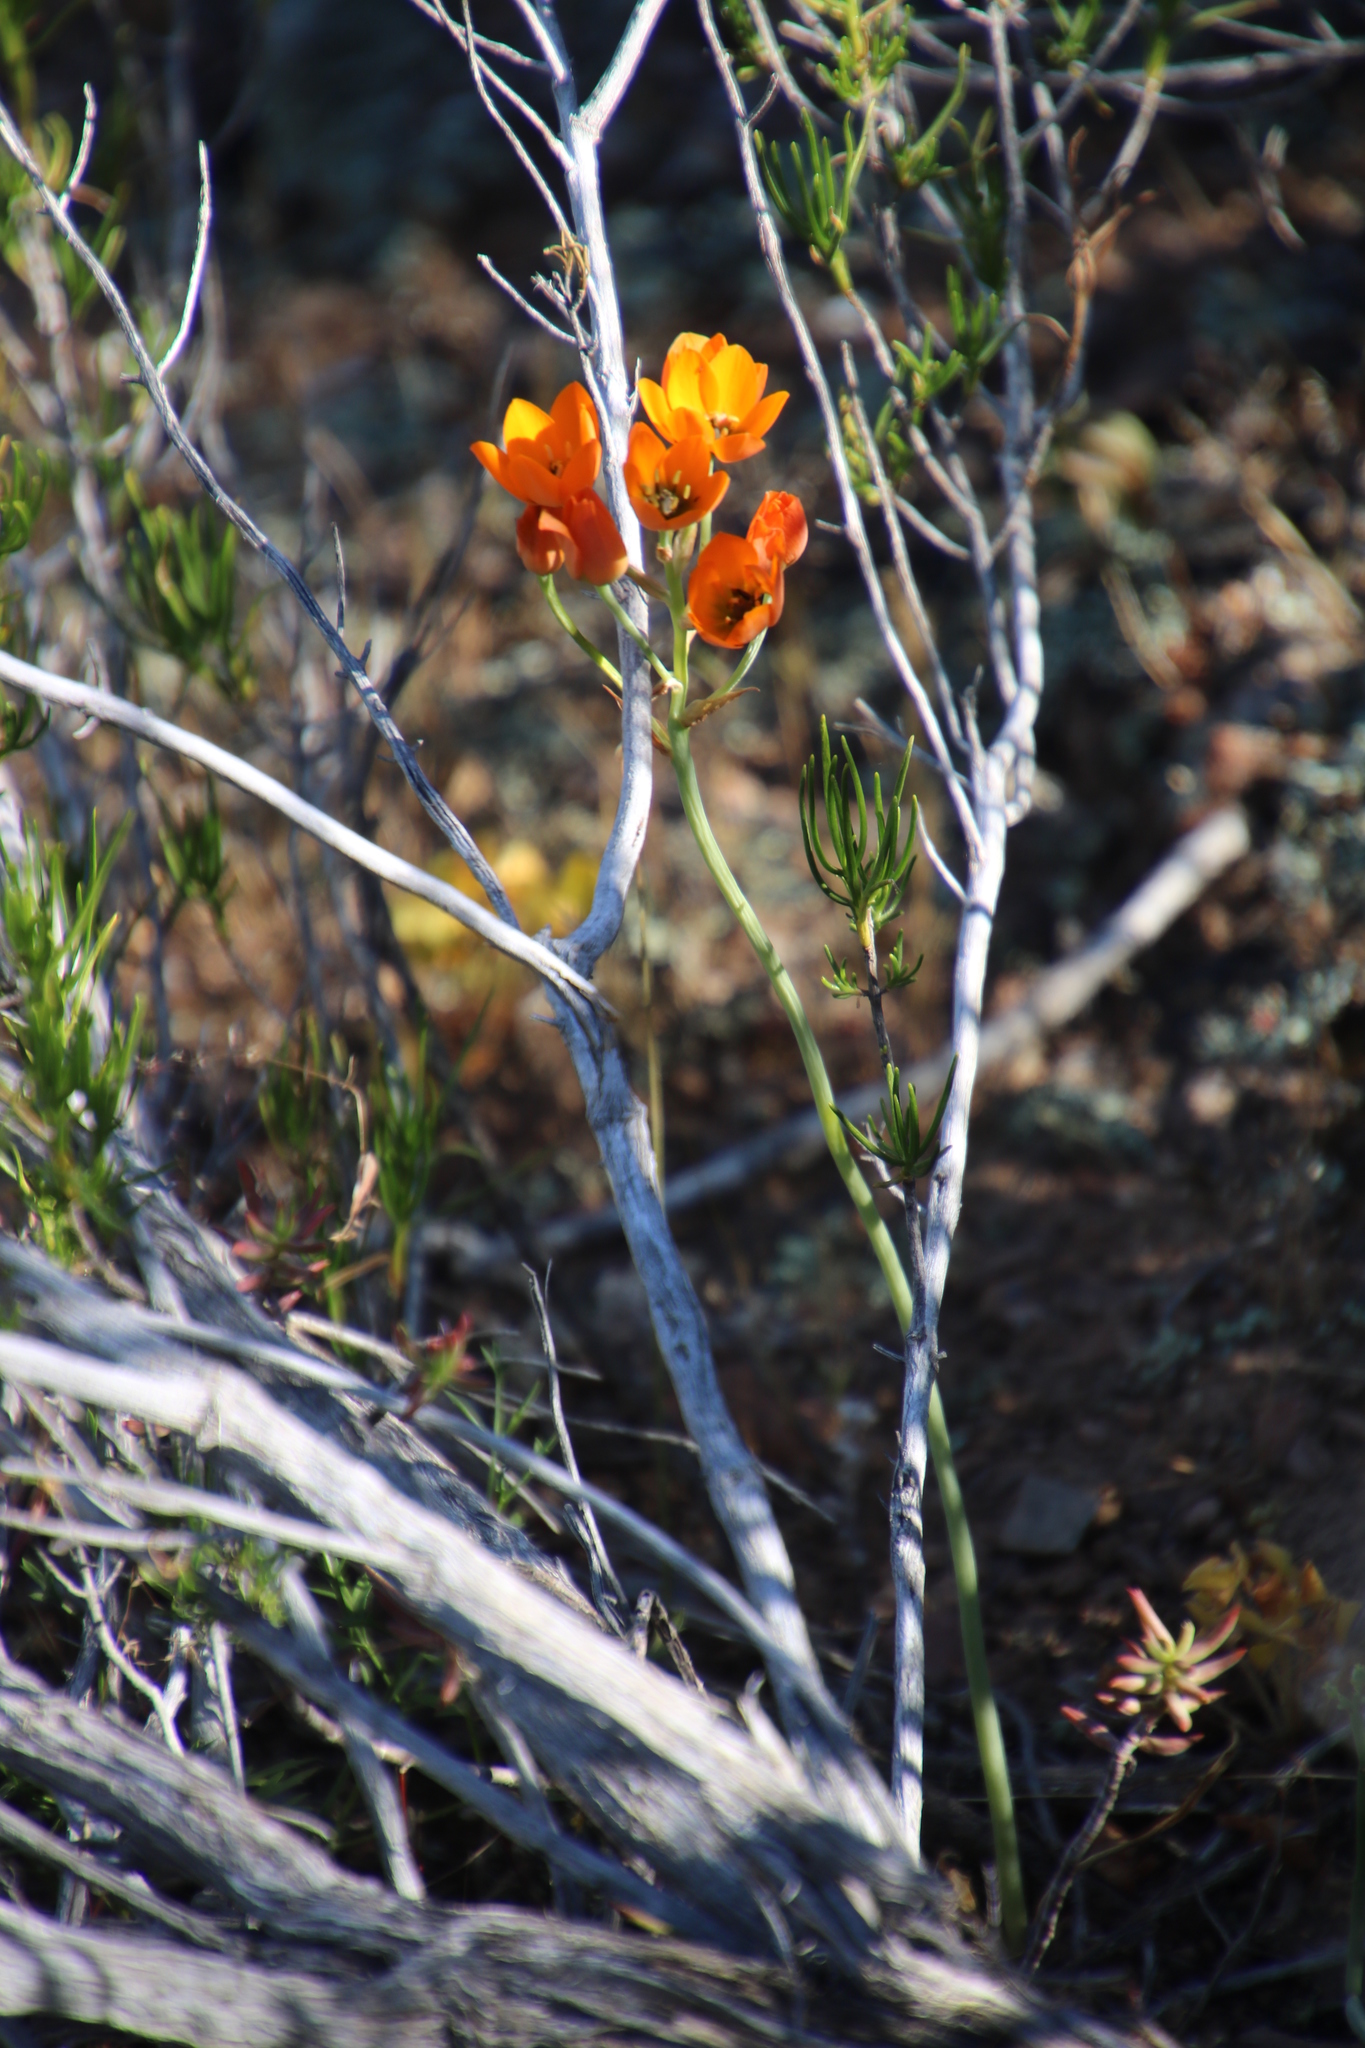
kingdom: Plantae
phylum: Tracheophyta
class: Liliopsida
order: Asparagales
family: Asparagaceae
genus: Ornithogalum
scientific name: Ornithogalum dubium
